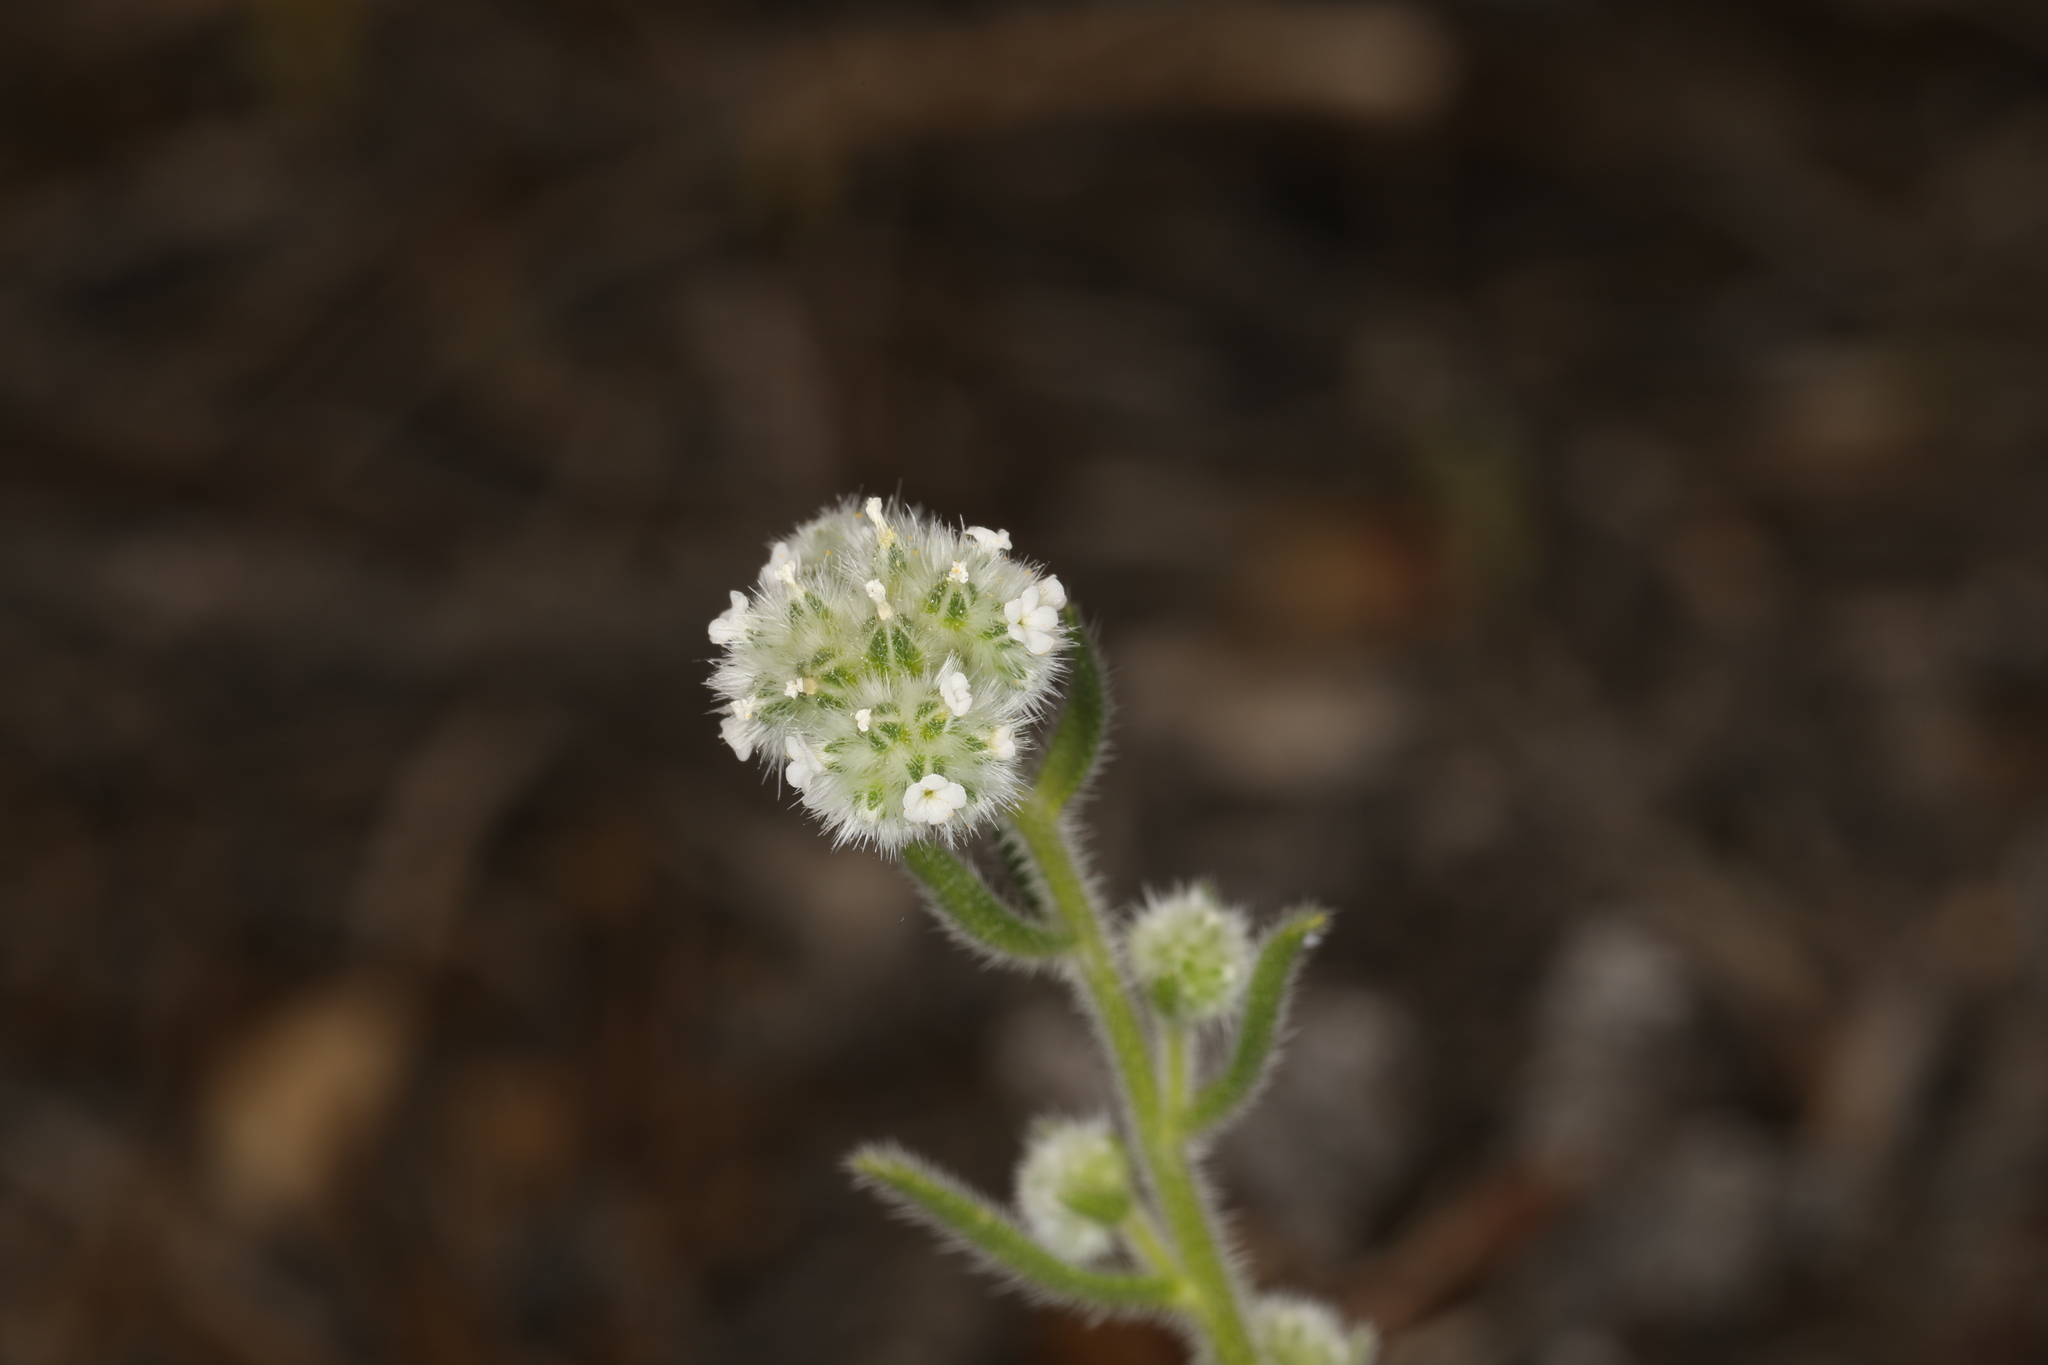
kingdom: Plantae
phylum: Tracheophyta
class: Magnoliopsida
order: Boraginales
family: Boraginaceae
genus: Cryptantha
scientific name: Cryptantha gracilis
